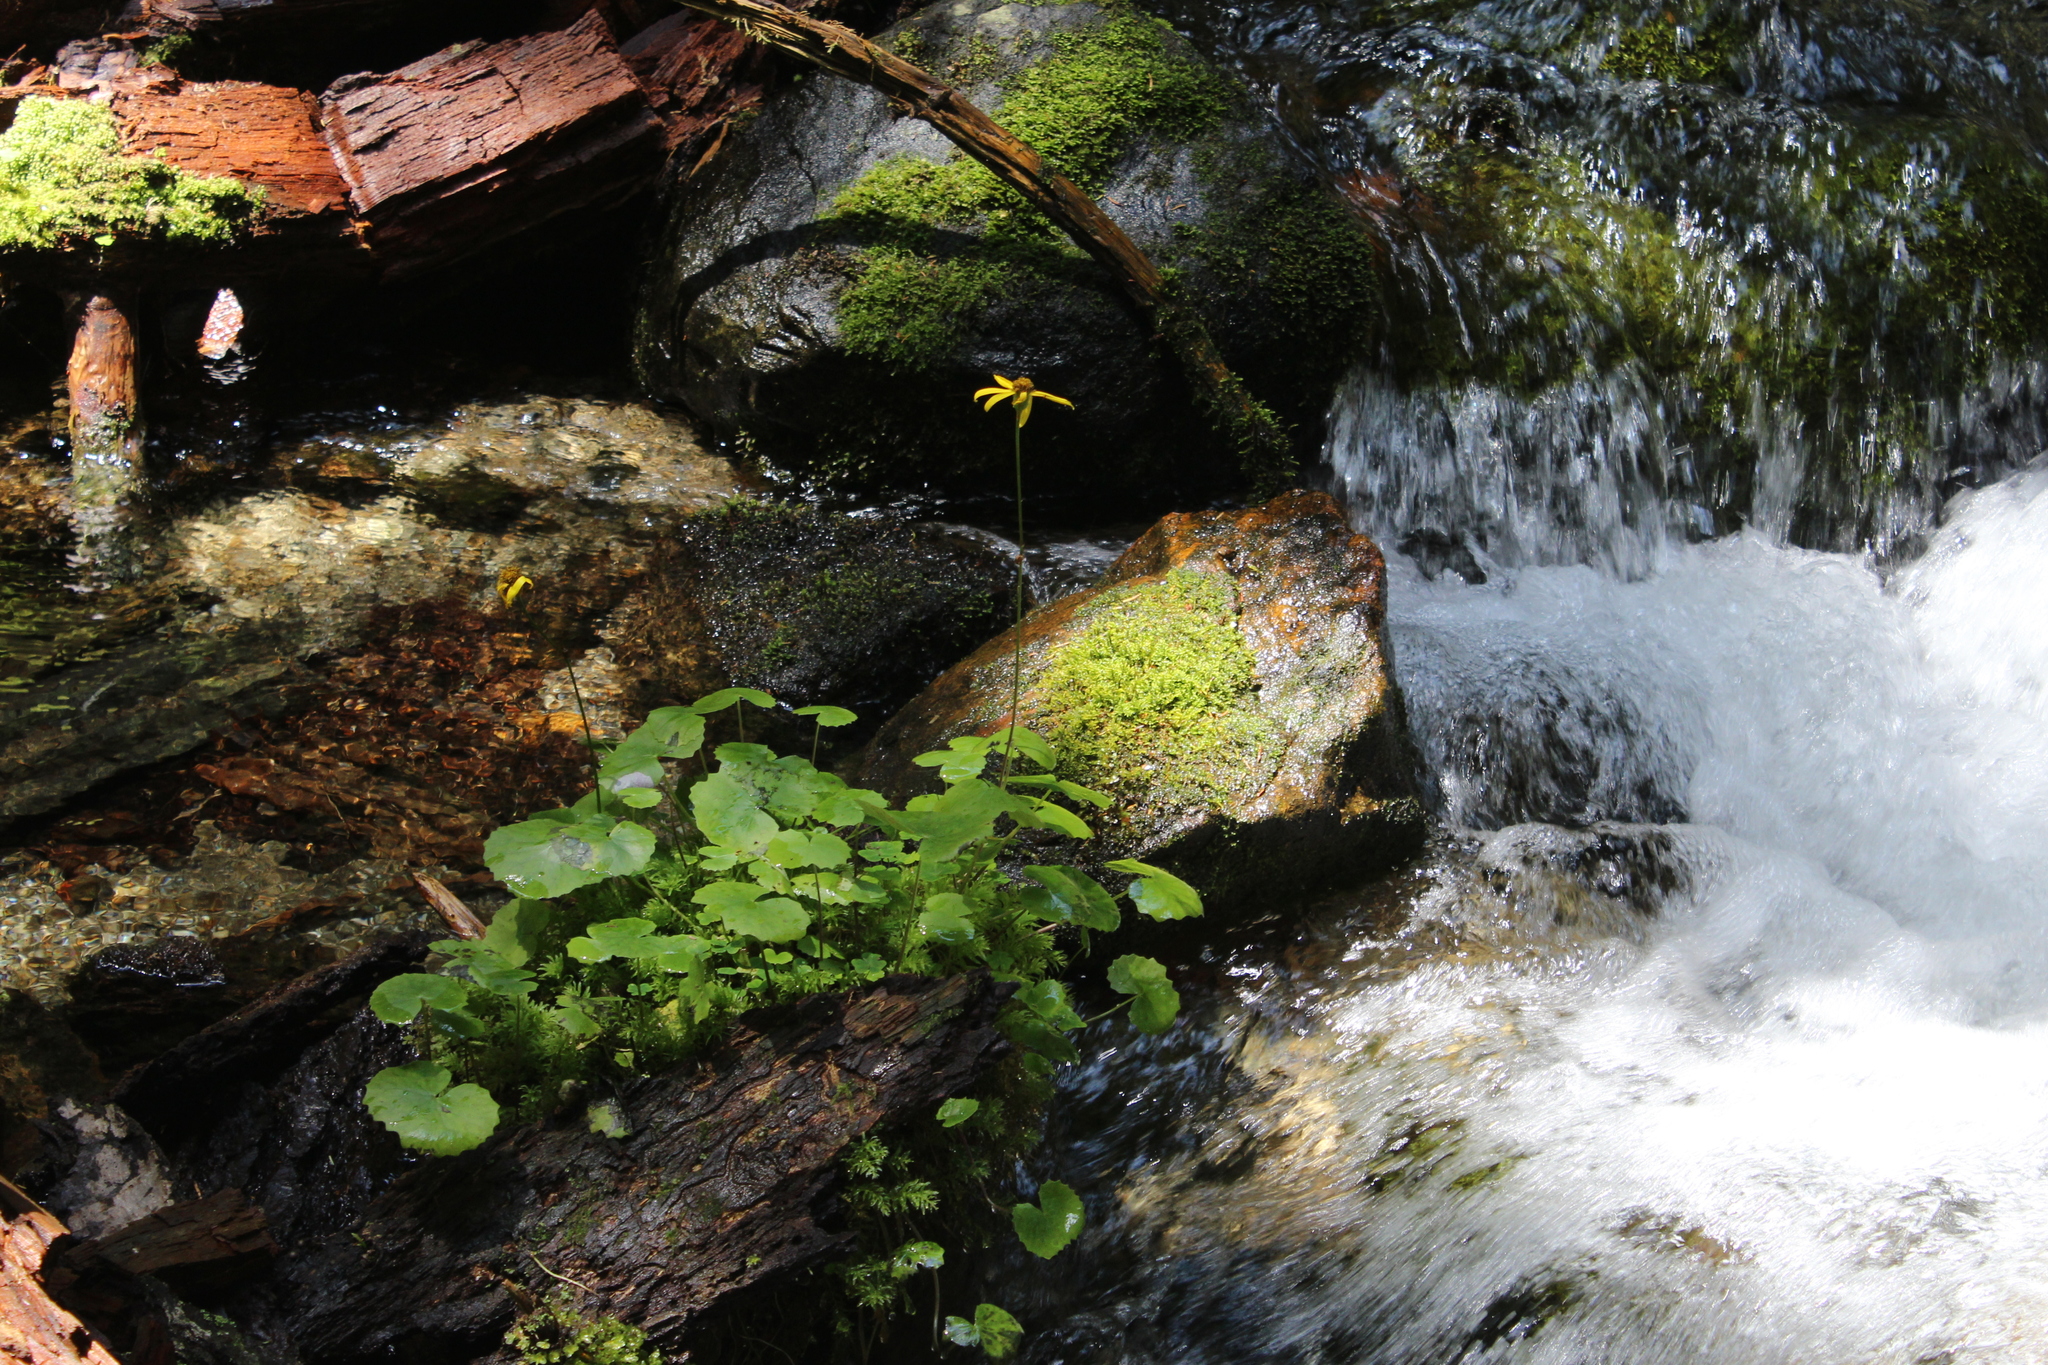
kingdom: Plantae
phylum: Tracheophyta
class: Magnoliopsida
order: Asterales
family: Asteraceae
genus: Dolichorrhiza
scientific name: Dolichorrhiza renifolia
